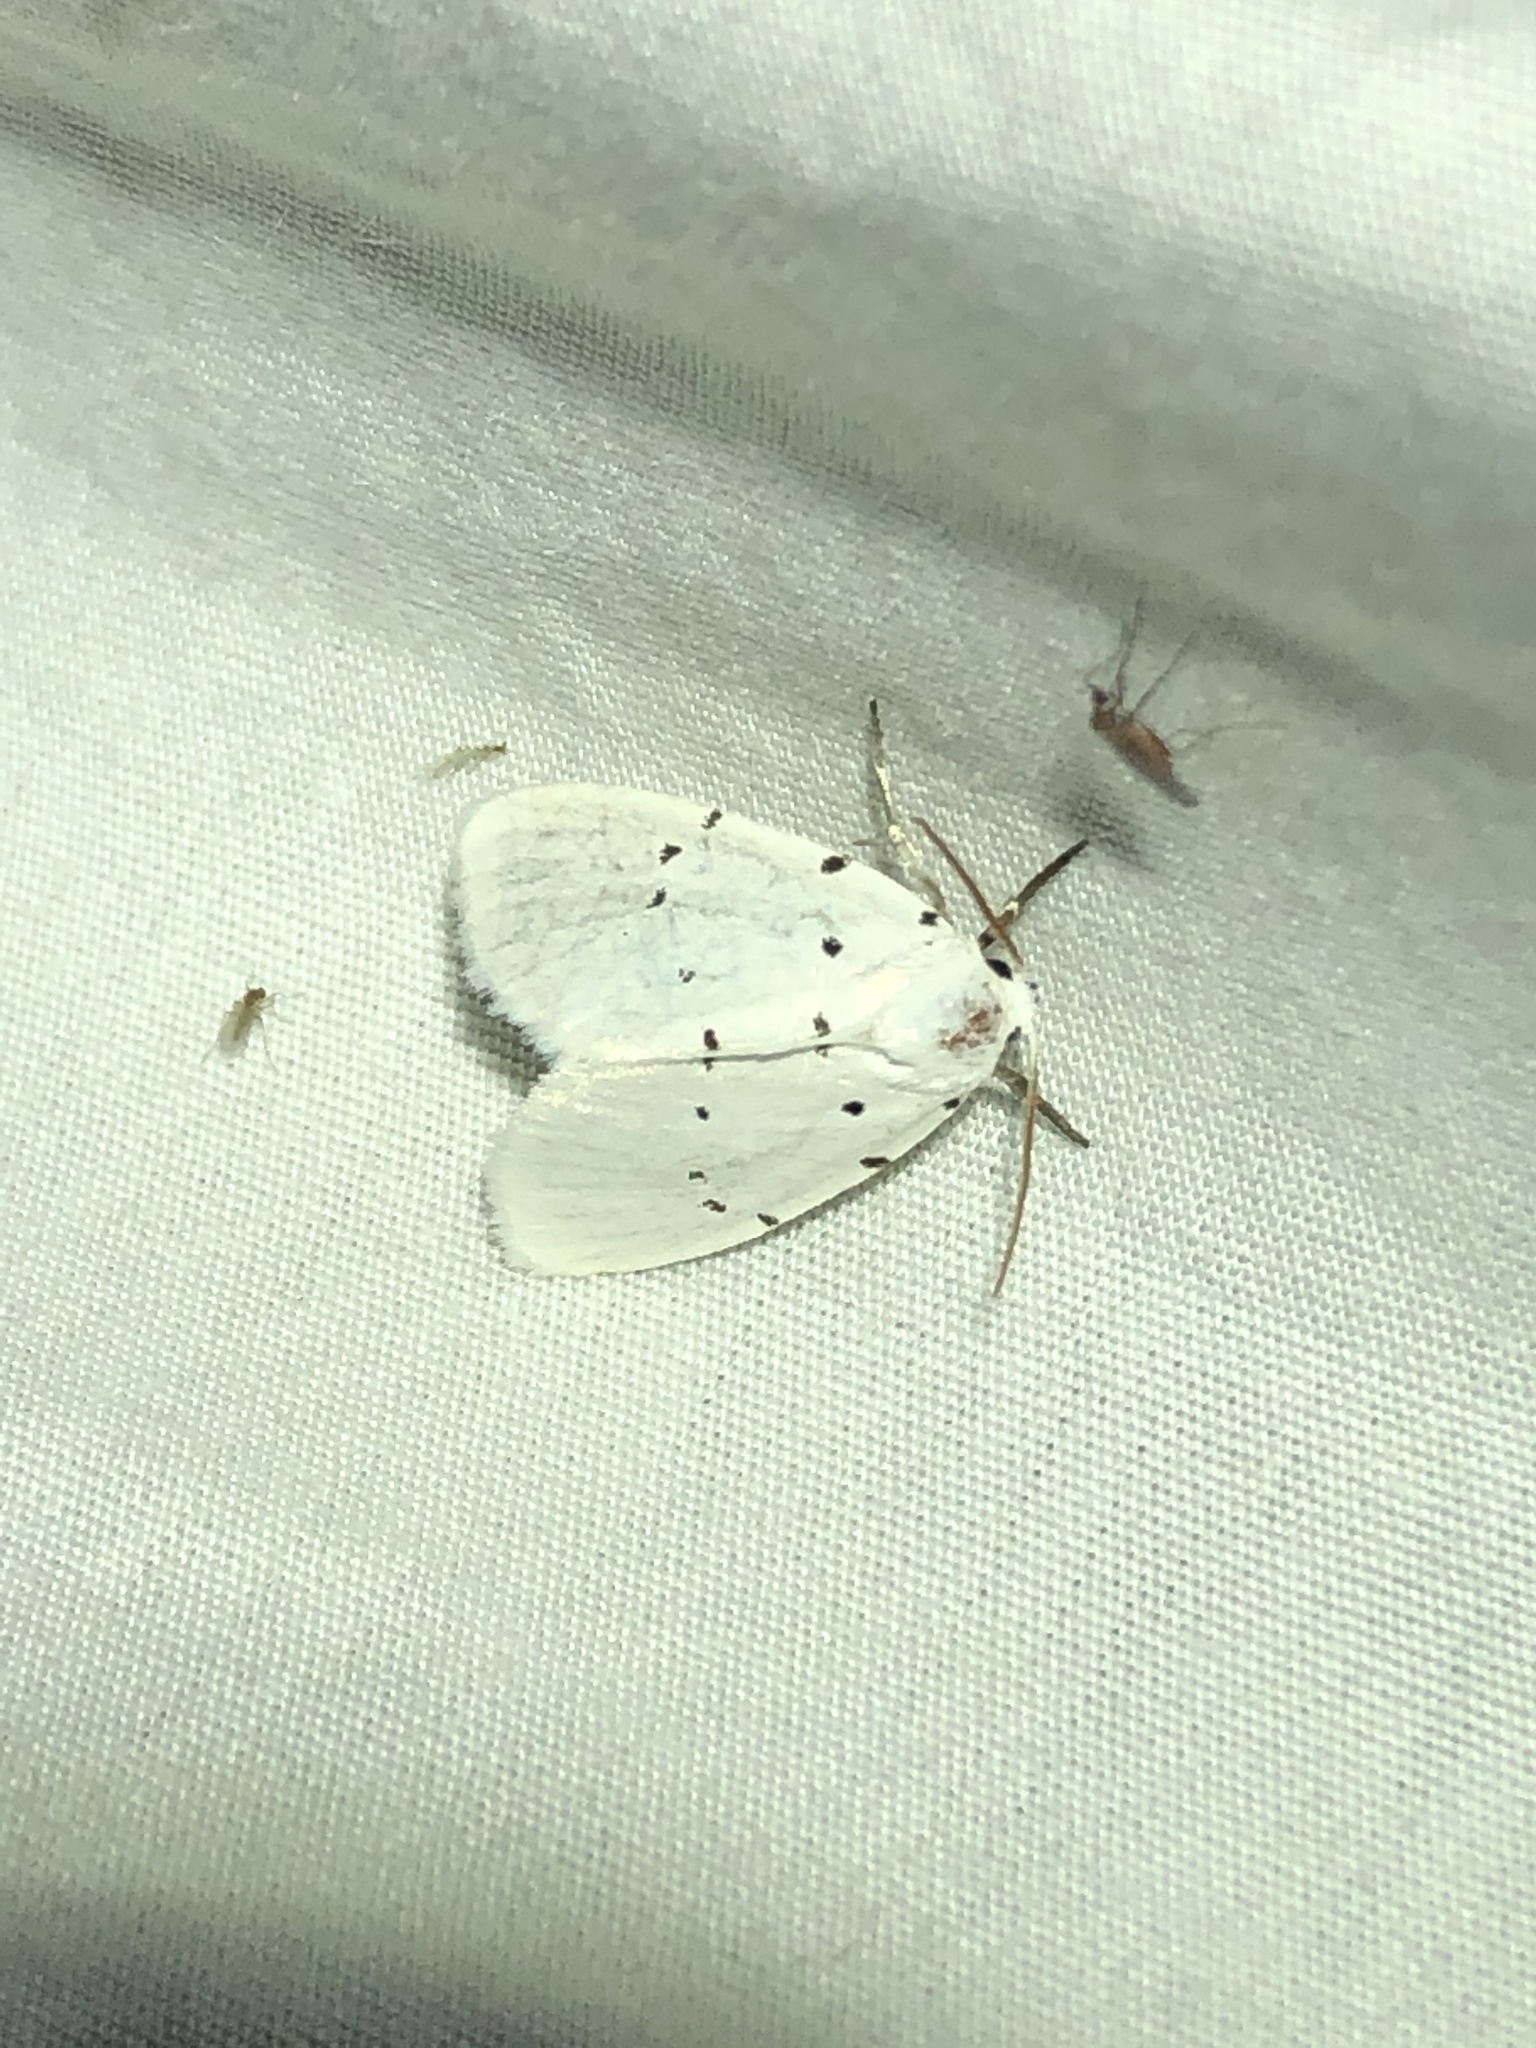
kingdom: Animalia
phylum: Arthropoda
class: Insecta
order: Lepidoptera
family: Noctuidae
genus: Homolagoa
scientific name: Homolagoa grotelliformis
